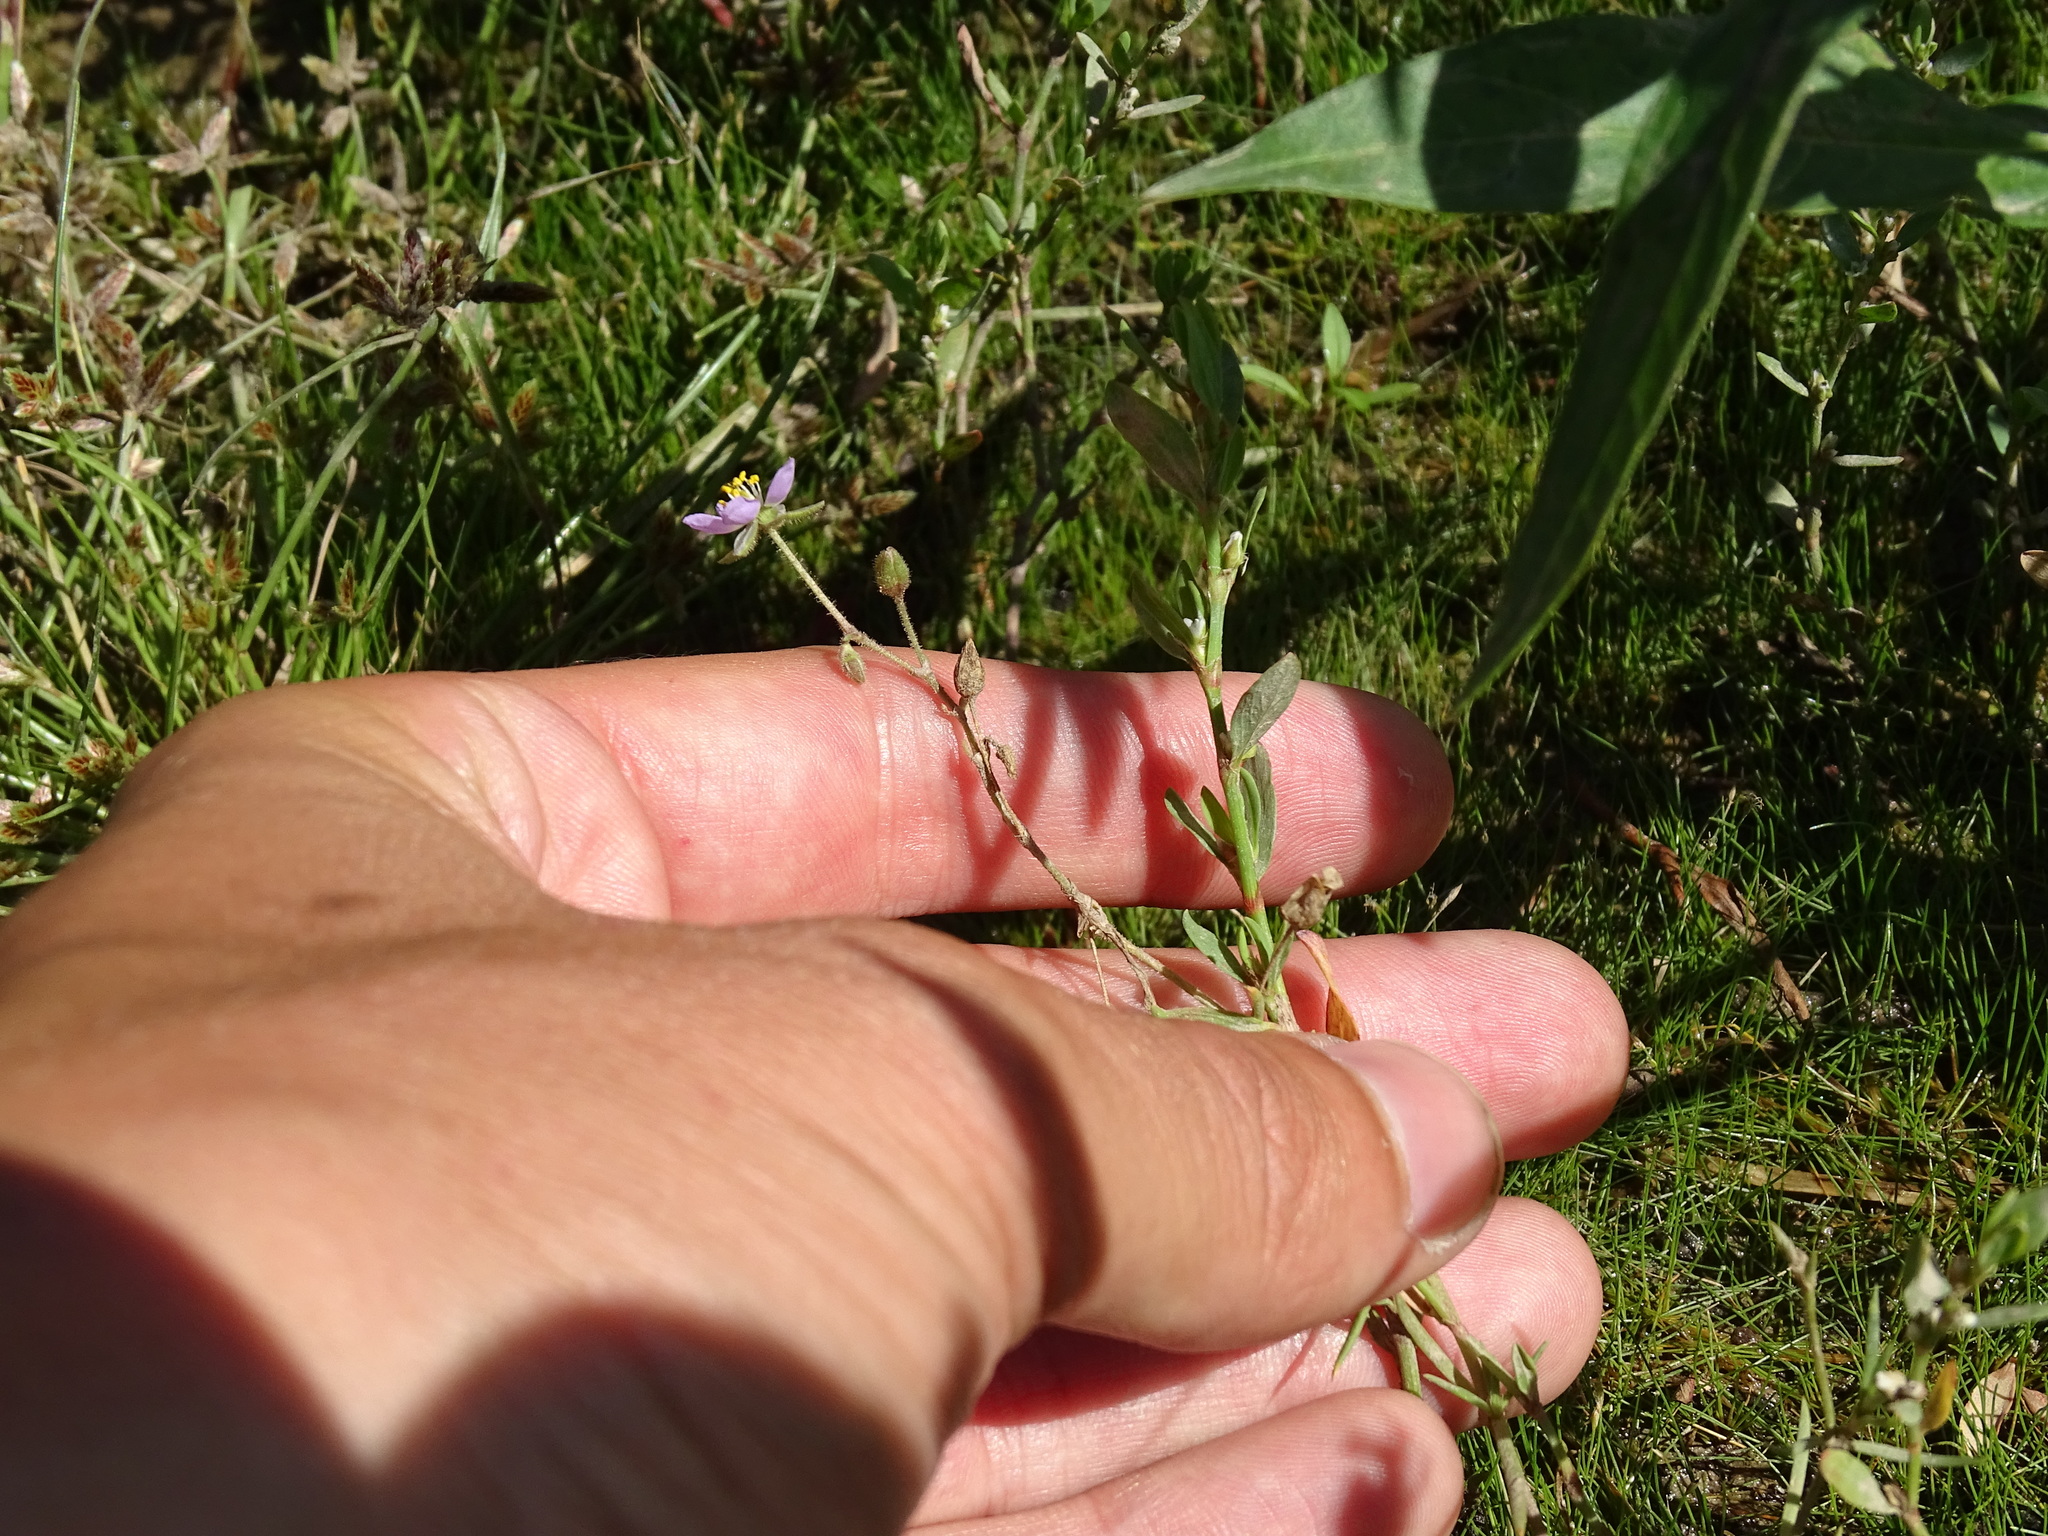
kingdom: Plantae
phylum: Tracheophyta
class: Magnoliopsida
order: Caryophyllales
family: Caryophyllaceae
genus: Spergularia
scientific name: Spergularia rubra
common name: Red sand-spurrey
